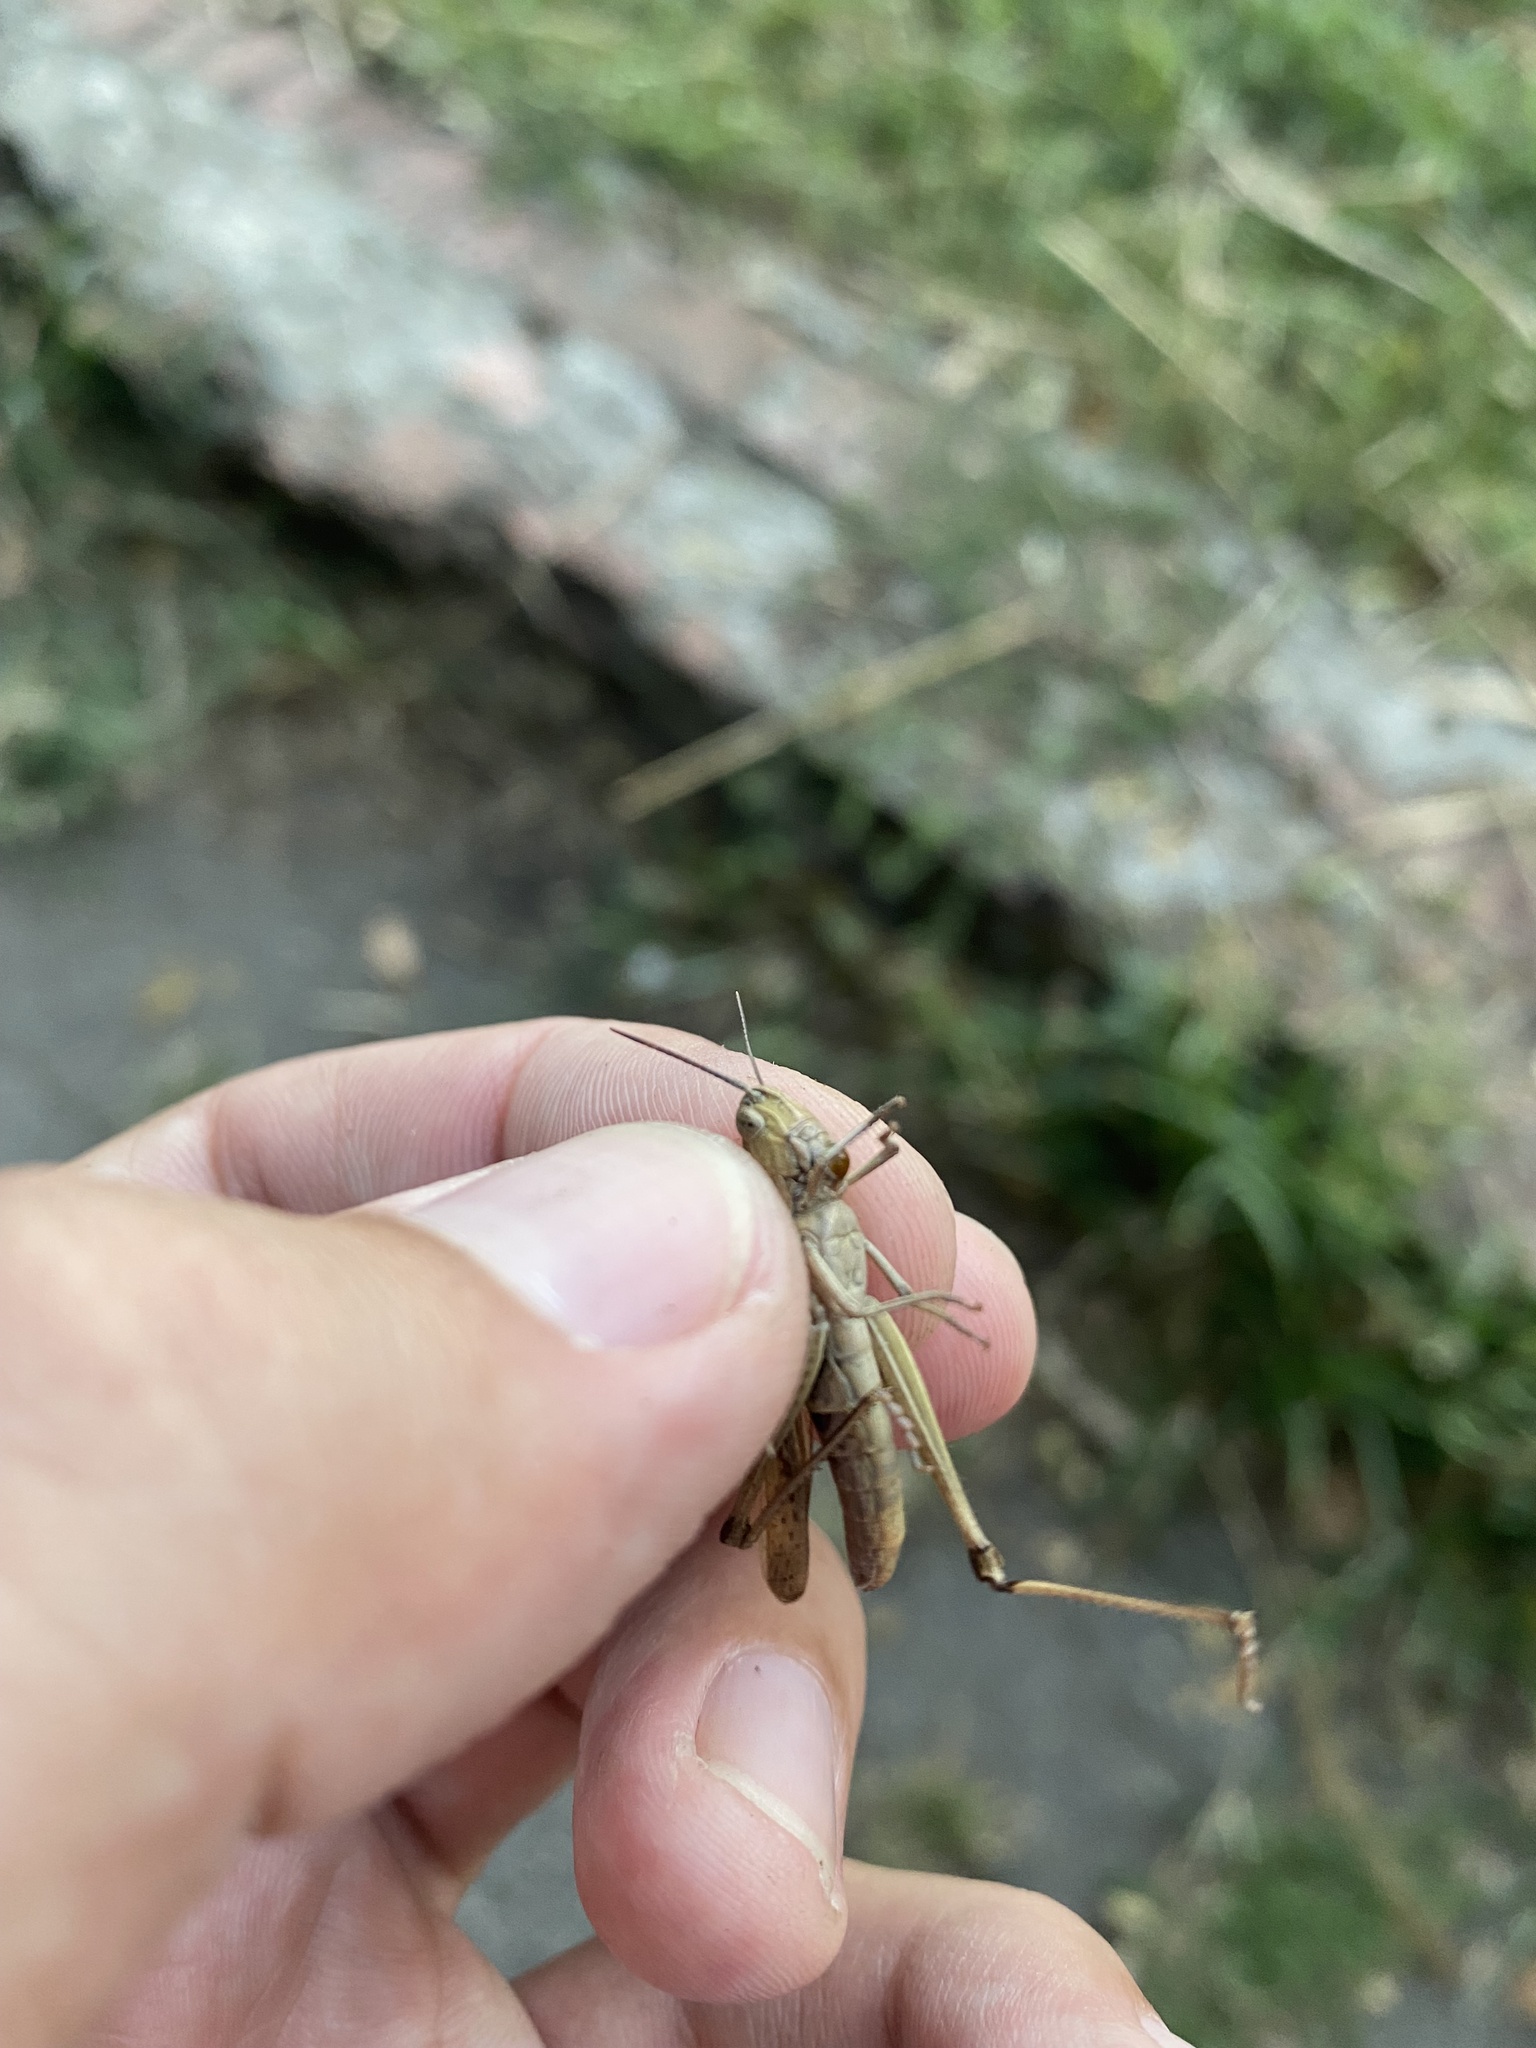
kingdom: Animalia
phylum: Arthropoda
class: Insecta
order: Orthoptera
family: Acrididae
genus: Chorthippus
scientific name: Chorthippus loratus
